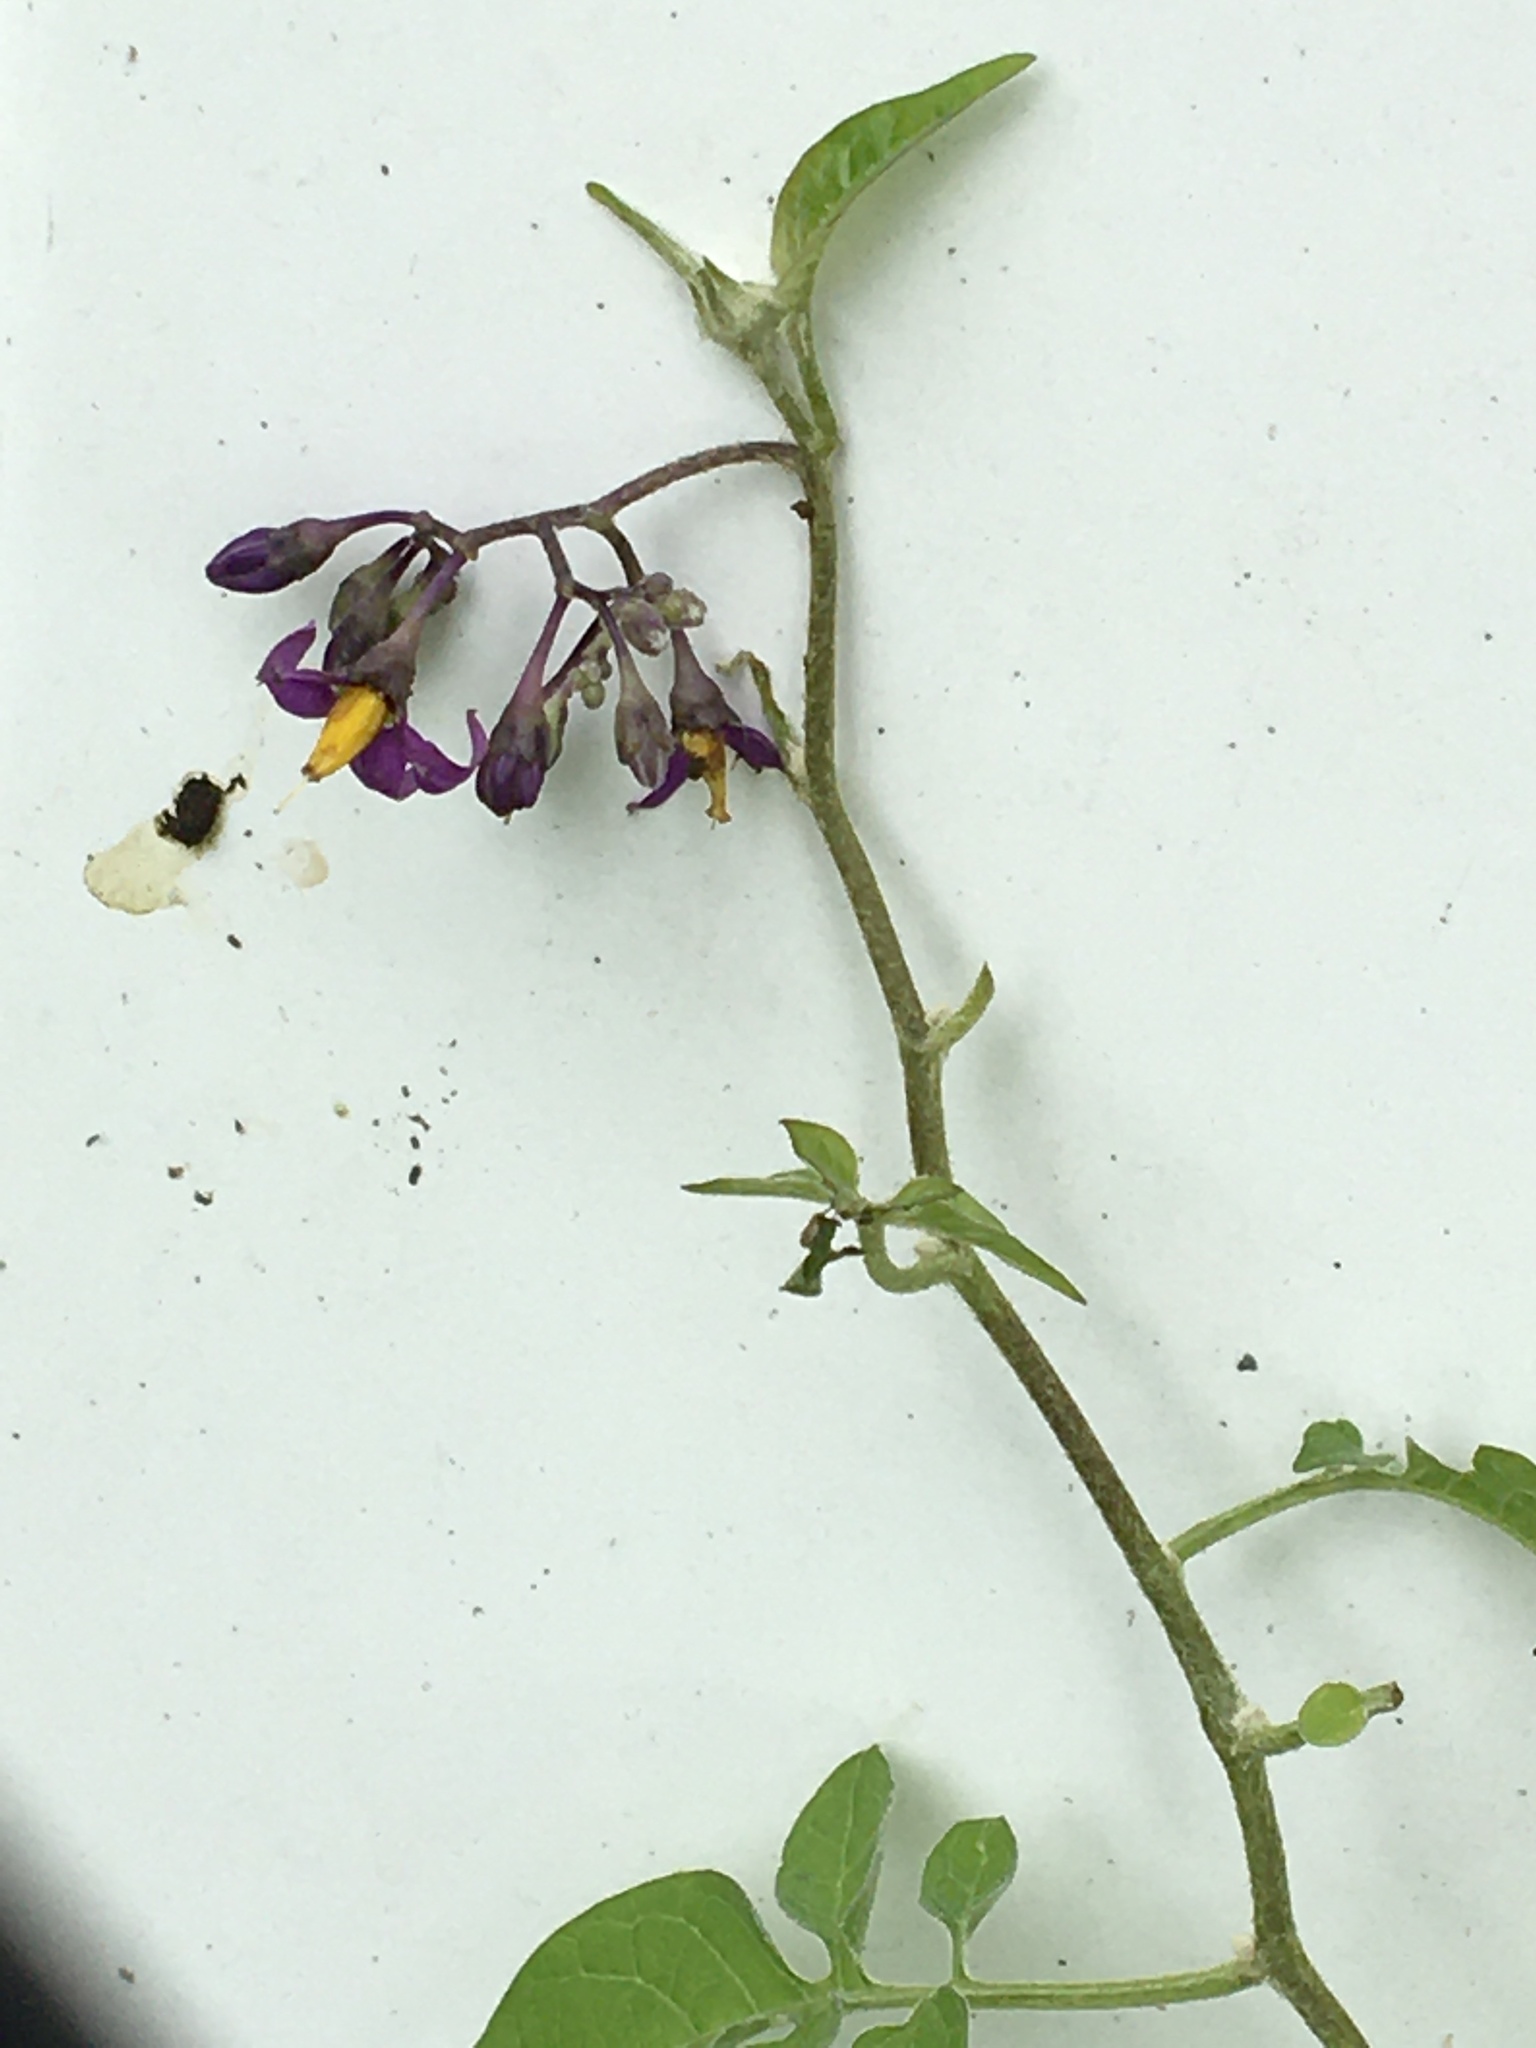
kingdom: Plantae
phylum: Tracheophyta
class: Magnoliopsida
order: Solanales
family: Solanaceae
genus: Solanum
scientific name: Solanum dulcamara
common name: Climbing nightshade
